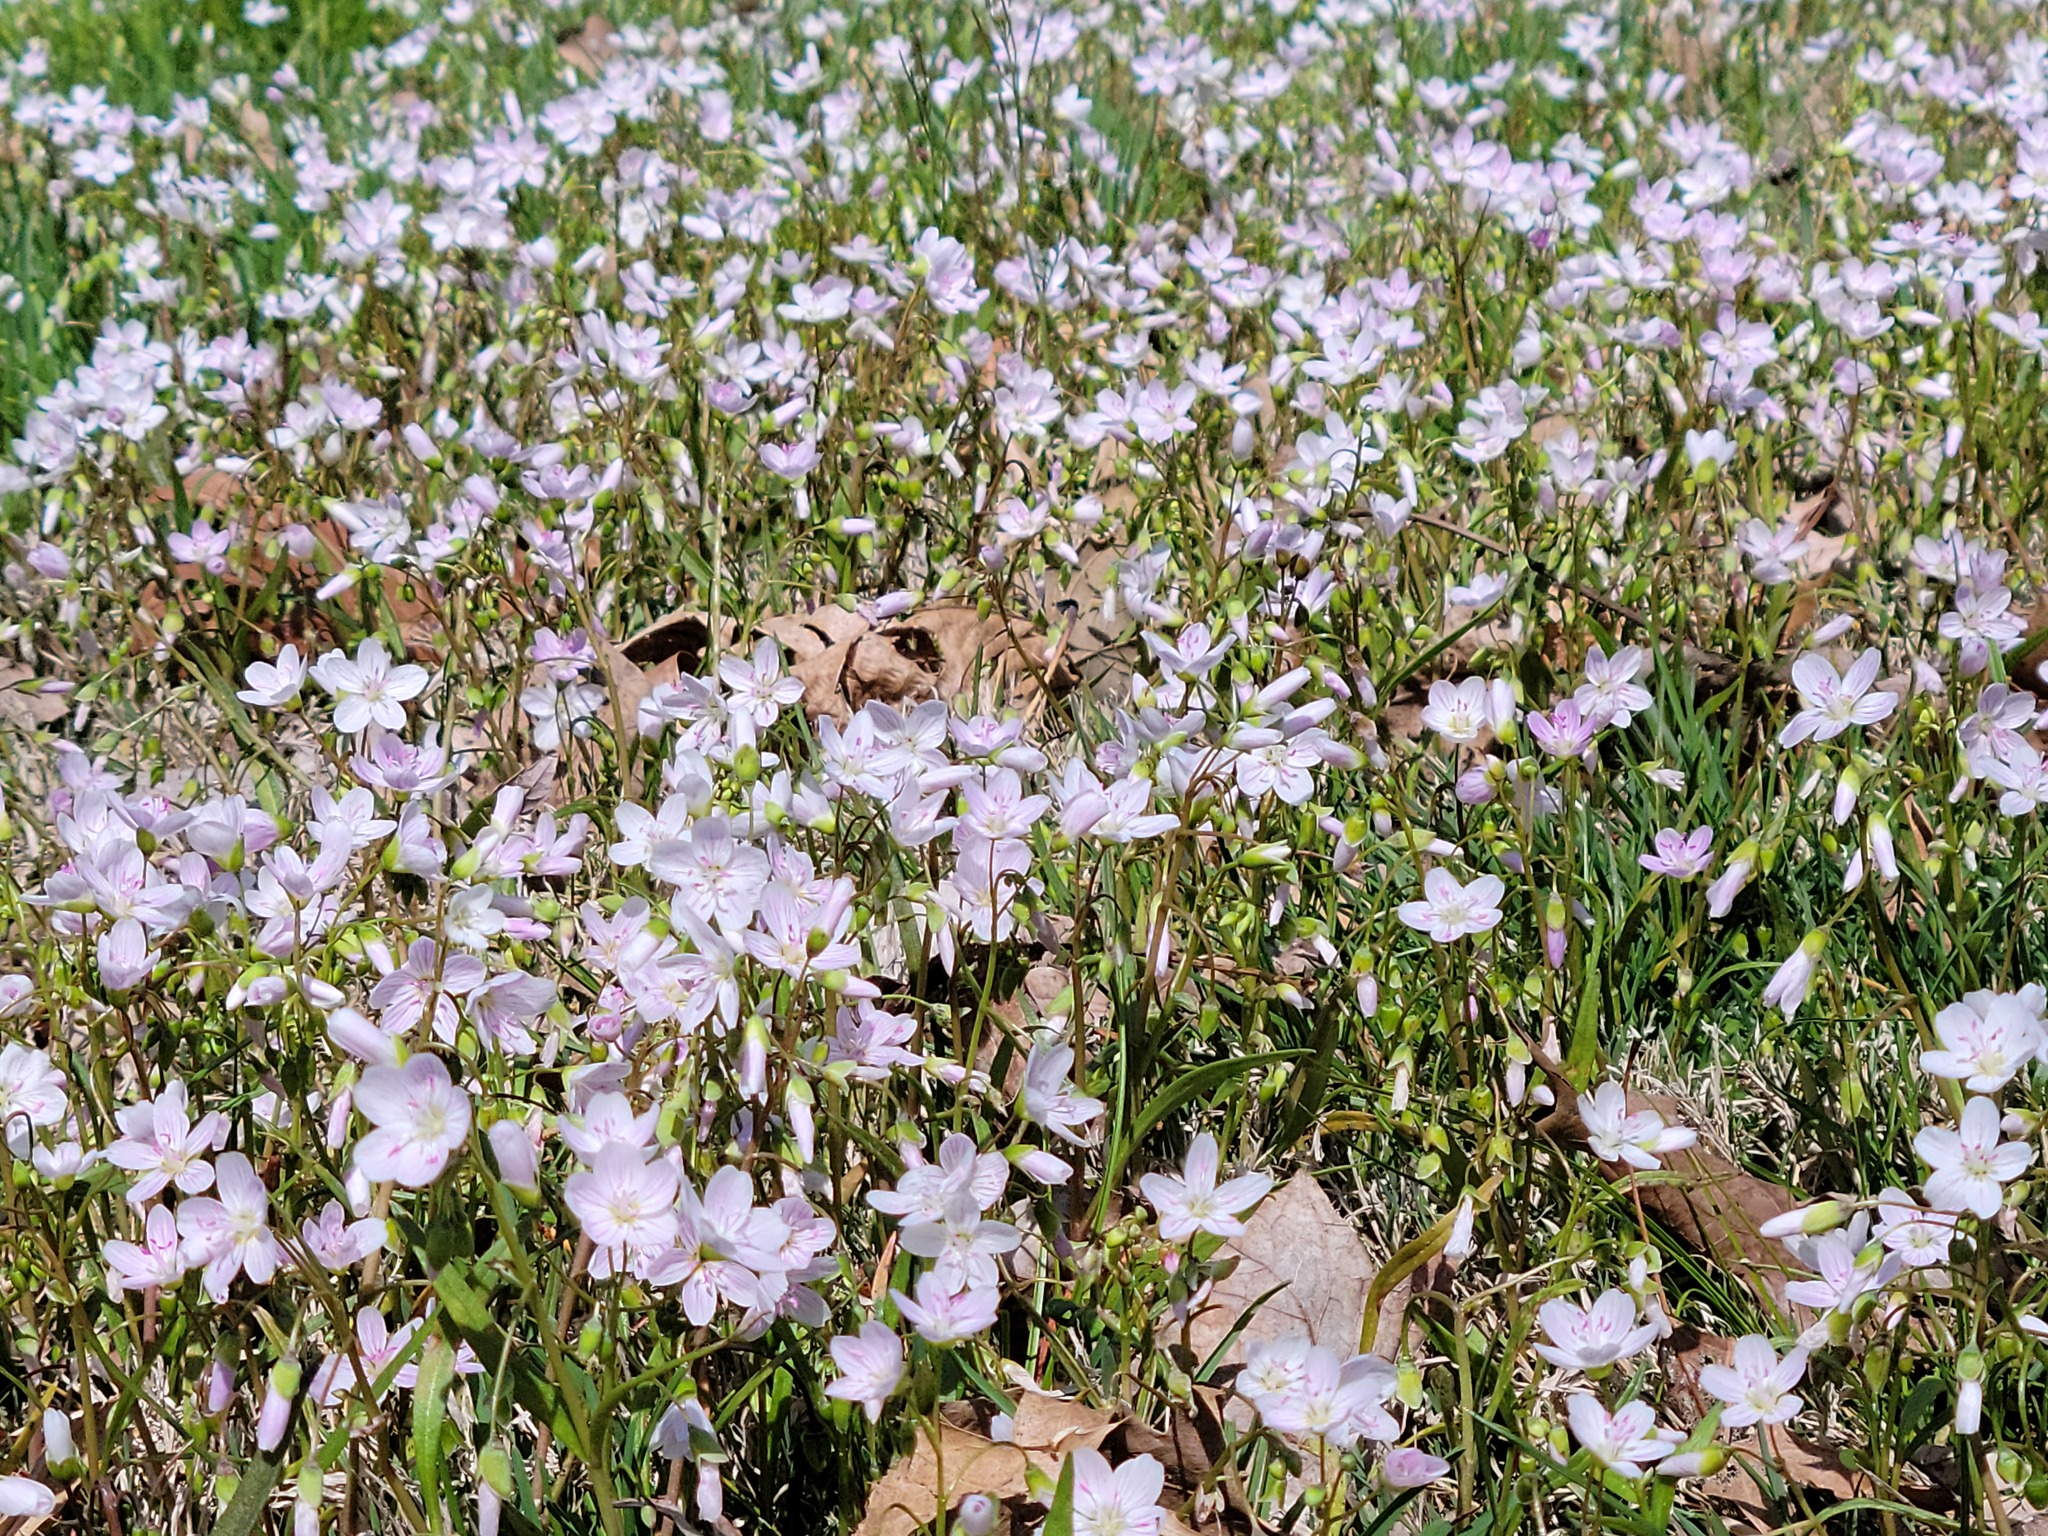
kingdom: Plantae
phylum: Tracheophyta
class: Magnoliopsida
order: Caryophyllales
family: Montiaceae
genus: Claytonia
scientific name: Claytonia virginica
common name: Virginia springbeauty
